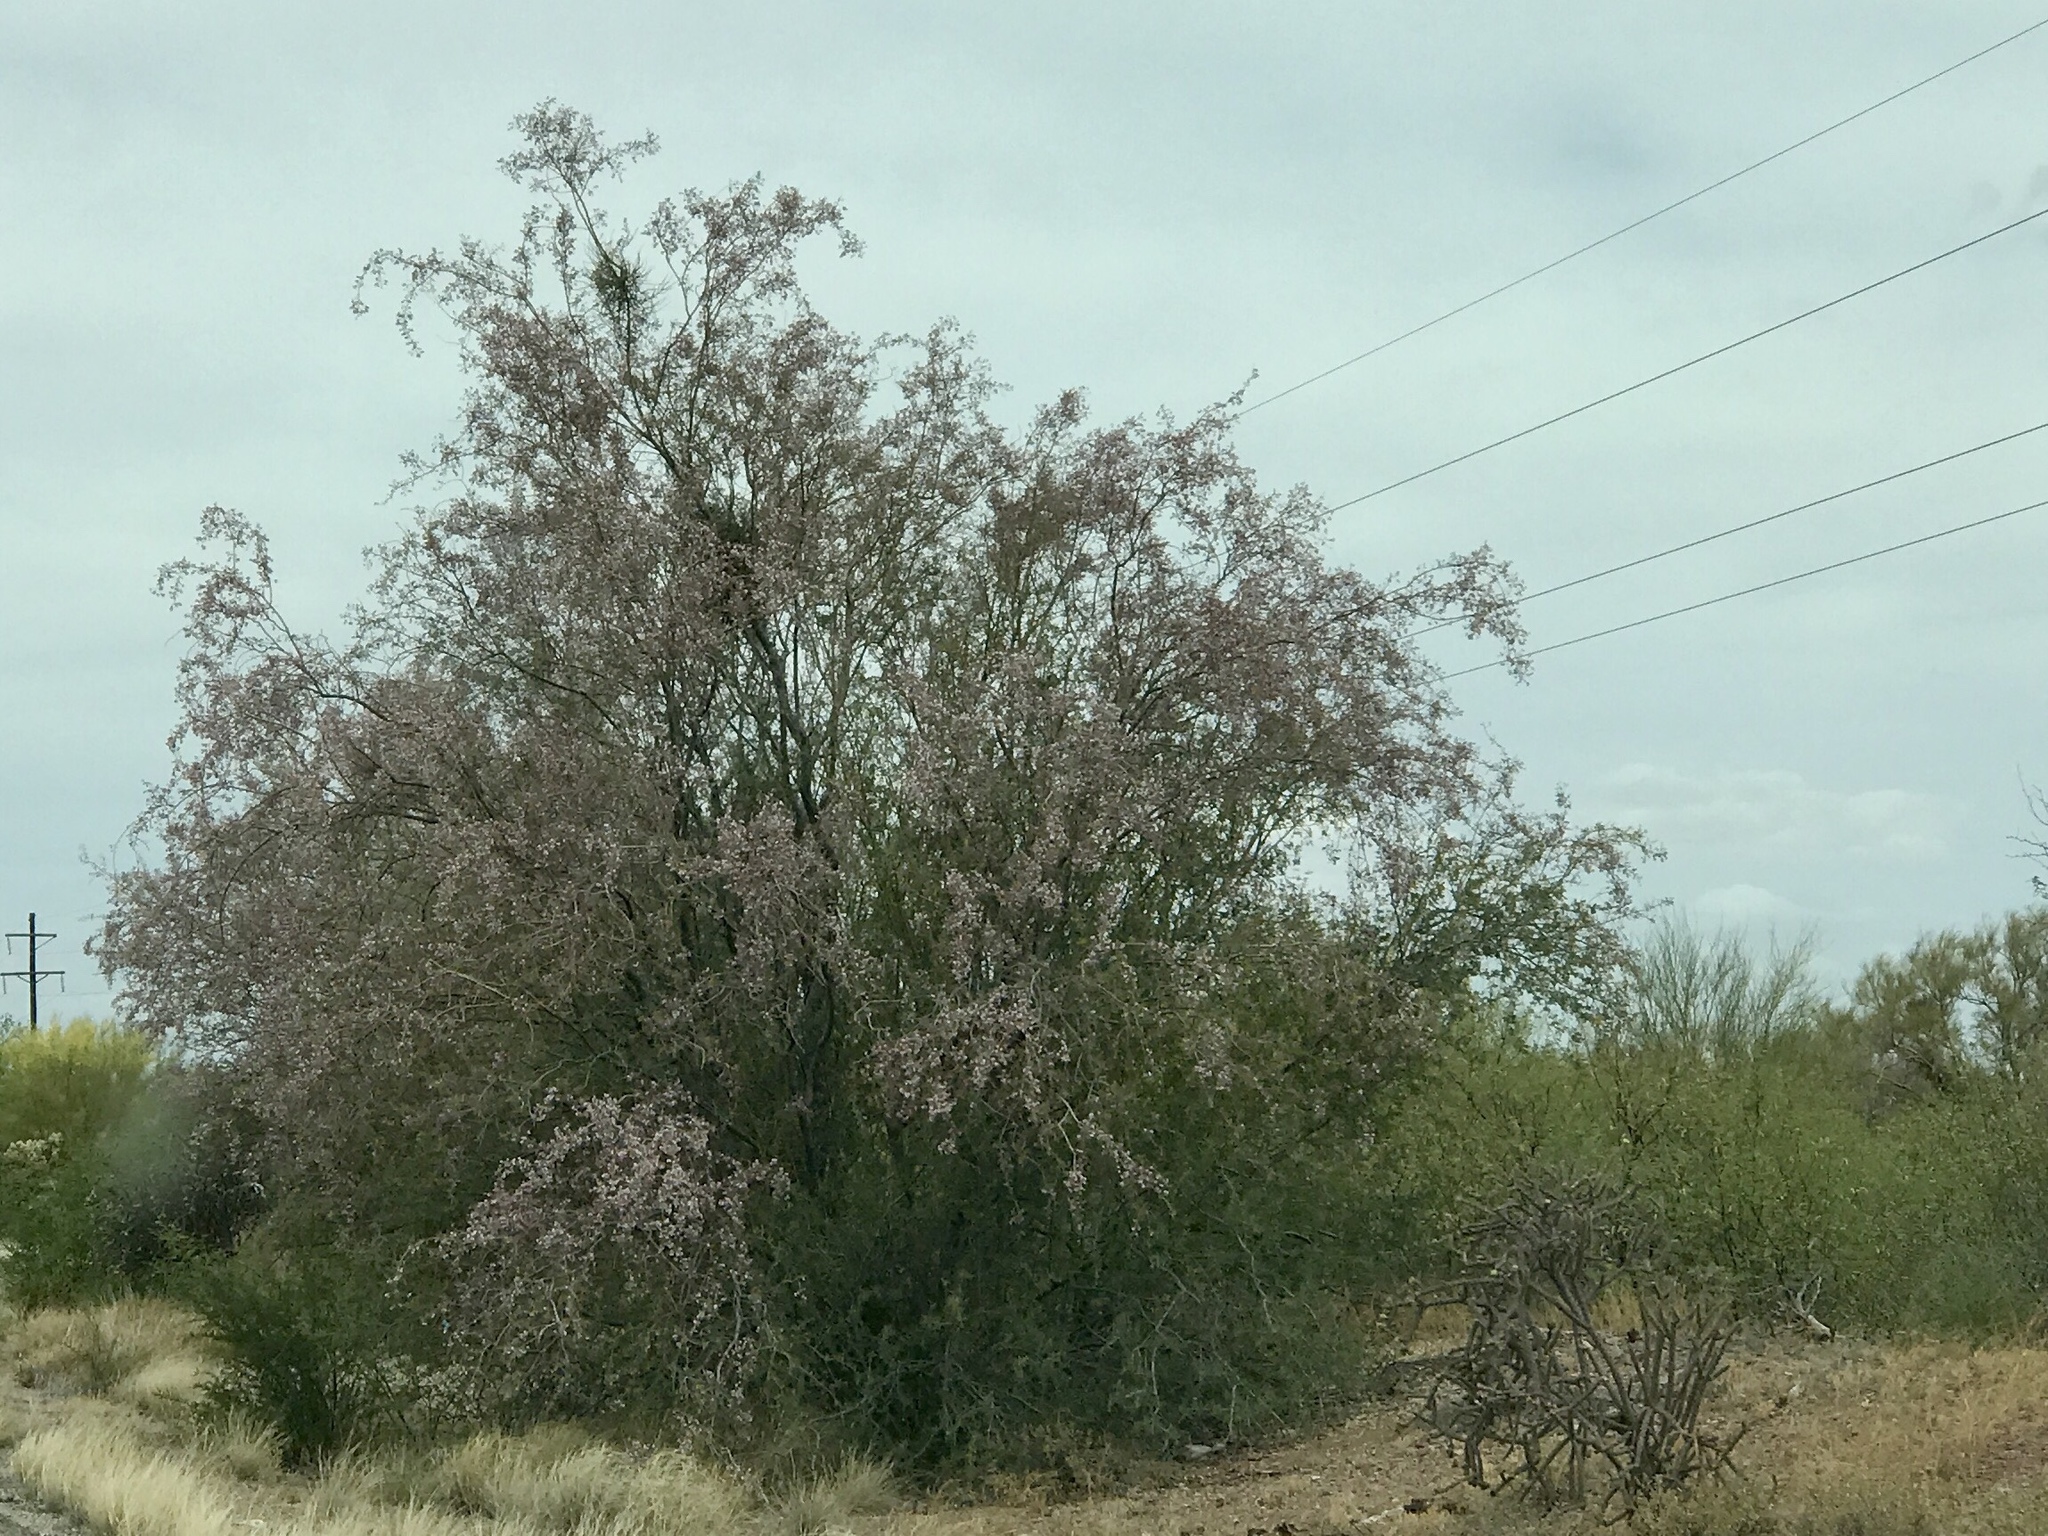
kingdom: Plantae
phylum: Tracheophyta
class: Magnoliopsida
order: Fabales
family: Fabaceae
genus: Olneya
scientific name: Olneya tesota
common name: Desert ironwood
